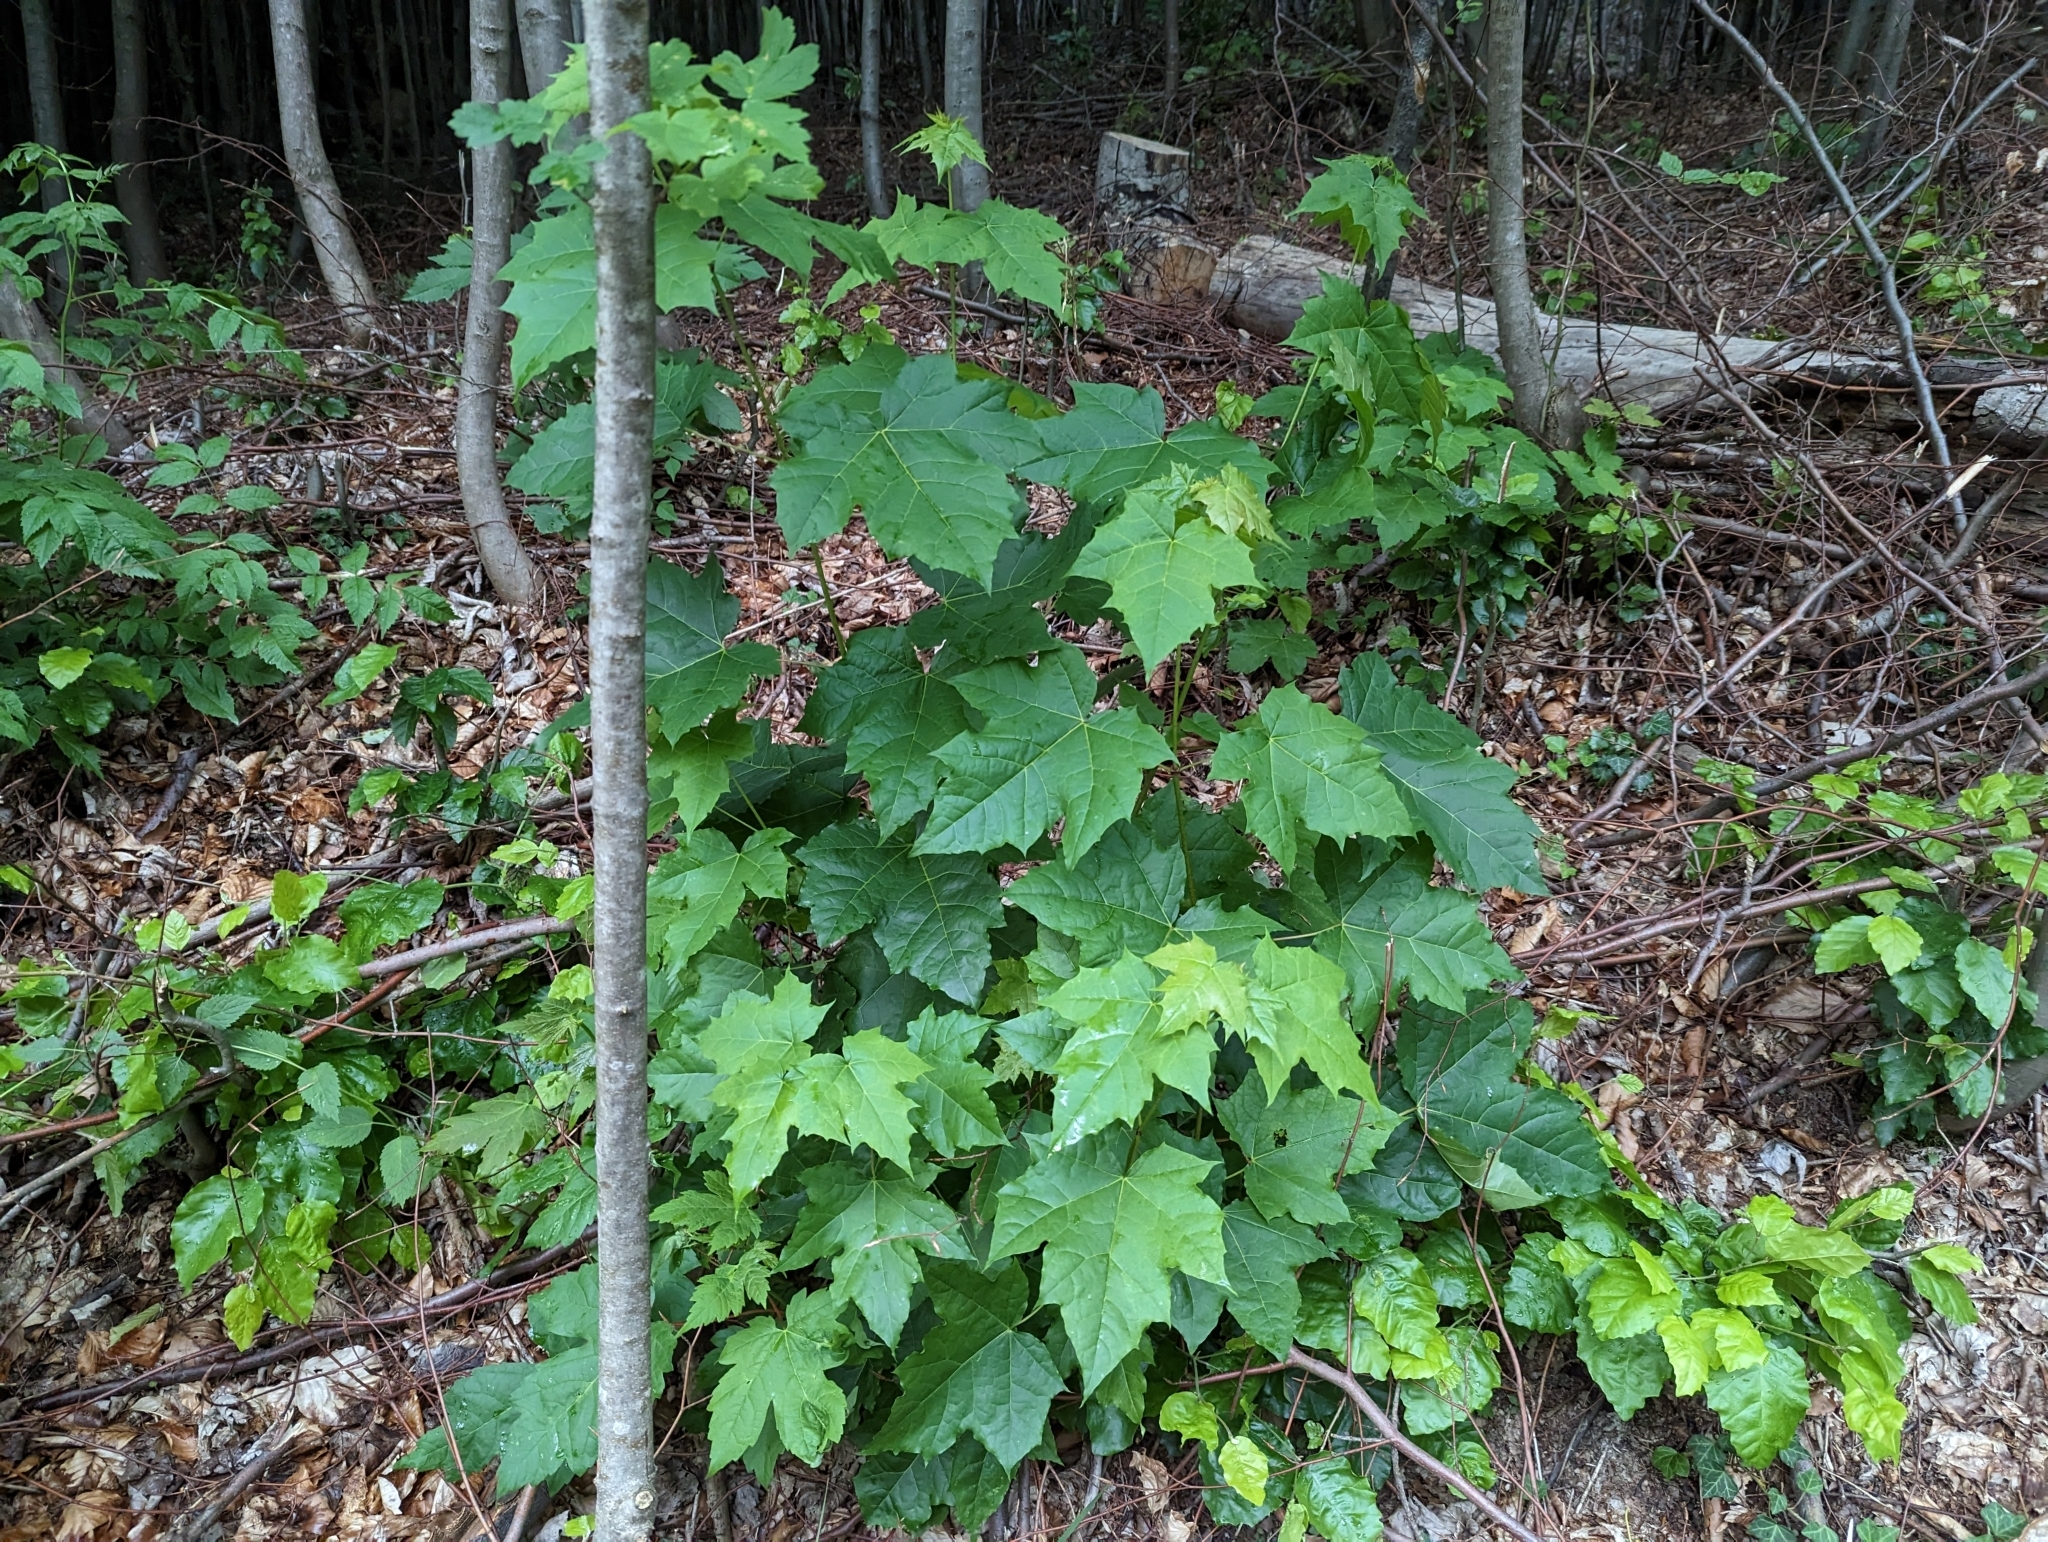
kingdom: Plantae
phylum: Tracheophyta
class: Magnoliopsida
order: Sapindales
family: Sapindaceae
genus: Acer
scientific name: Acer platanoides
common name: Norway maple
